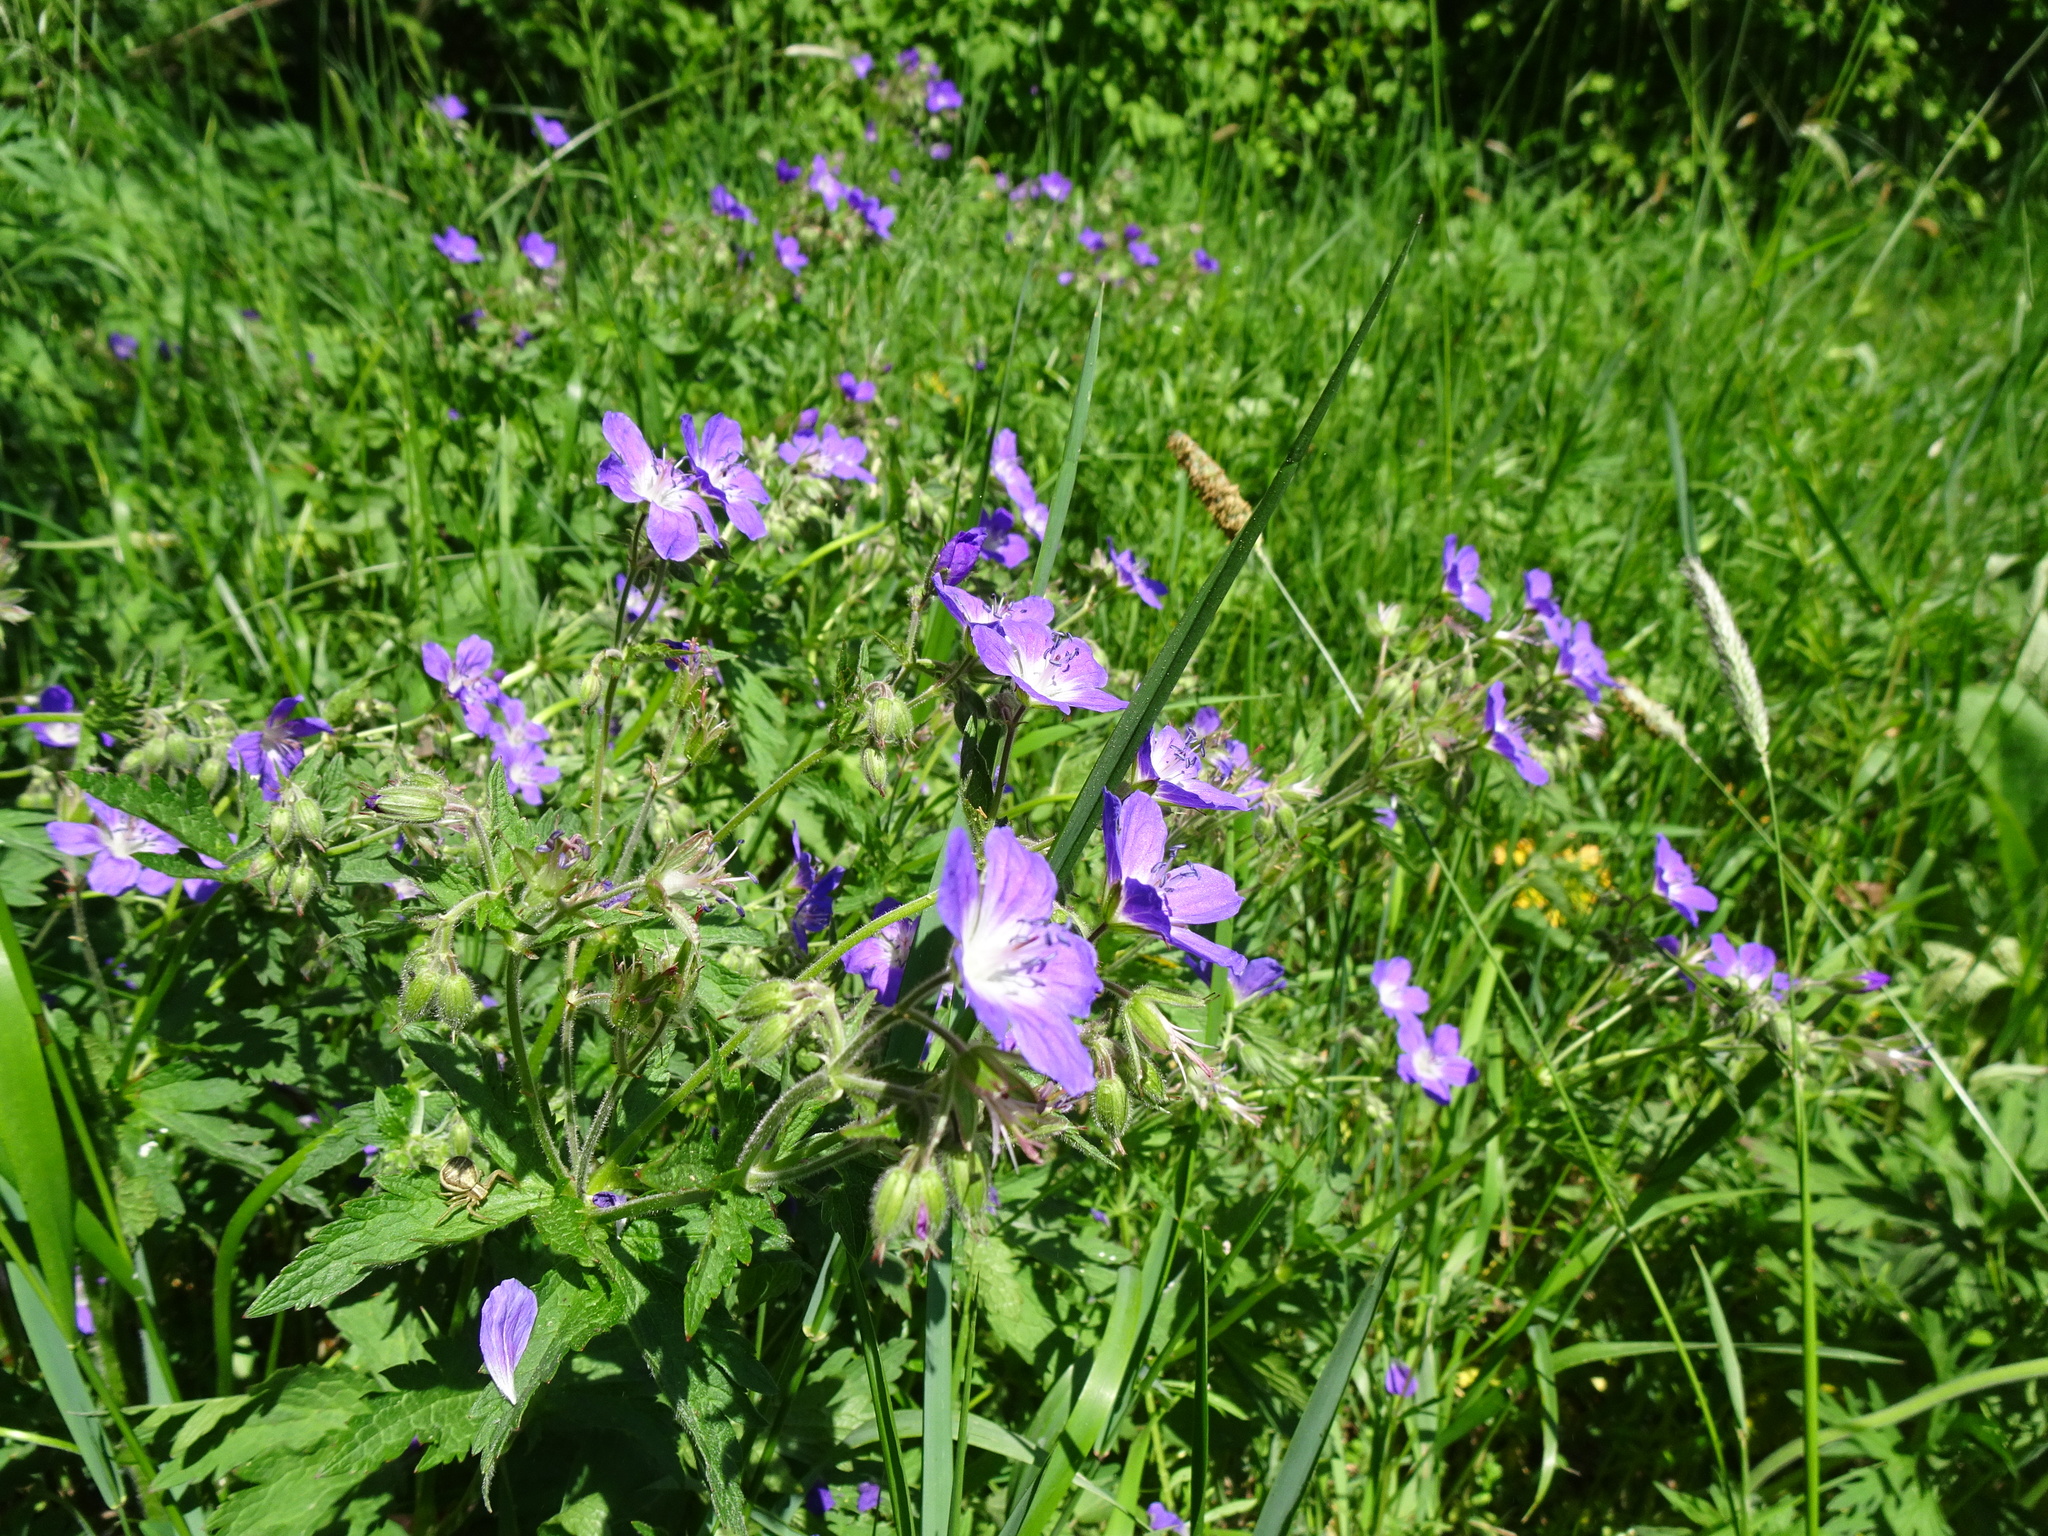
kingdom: Plantae
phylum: Tracheophyta
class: Magnoliopsida
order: Geraniales
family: Geraniaceae
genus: Geranium
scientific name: Geranium pratense
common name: Meadow crane's-bill
